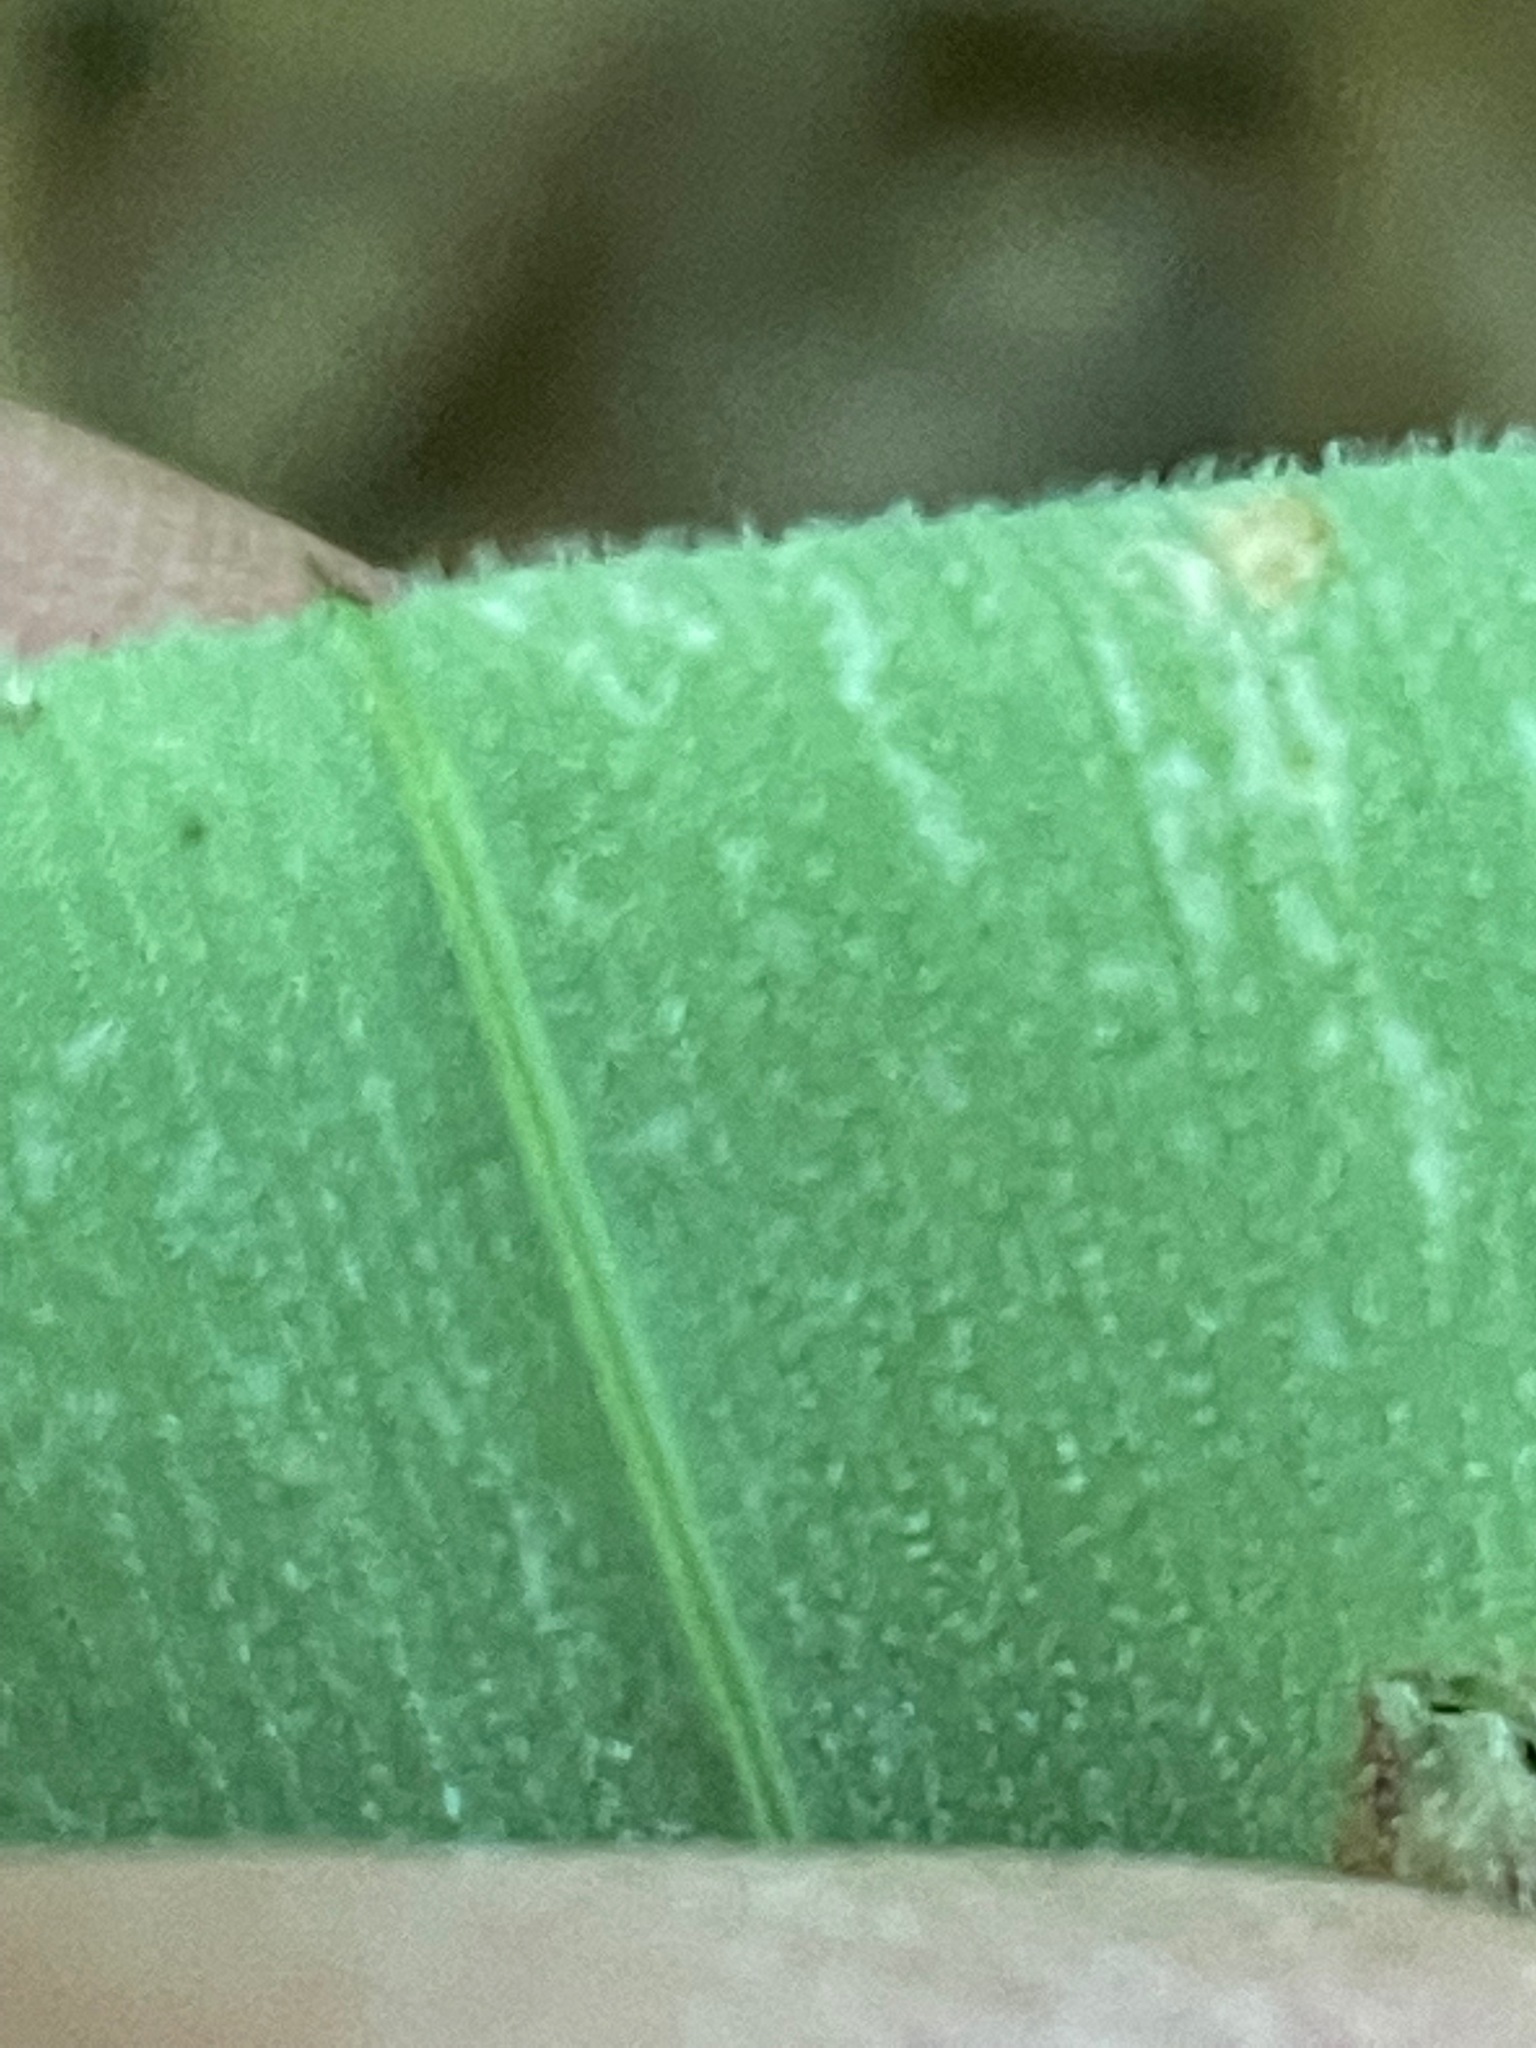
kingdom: Plantae
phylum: Tracheophyta
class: Liliopsida
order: Asparagales
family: Asparagaceae
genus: Polygonatum
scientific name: Polygonatum pubescens
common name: Downy solomon's seal
